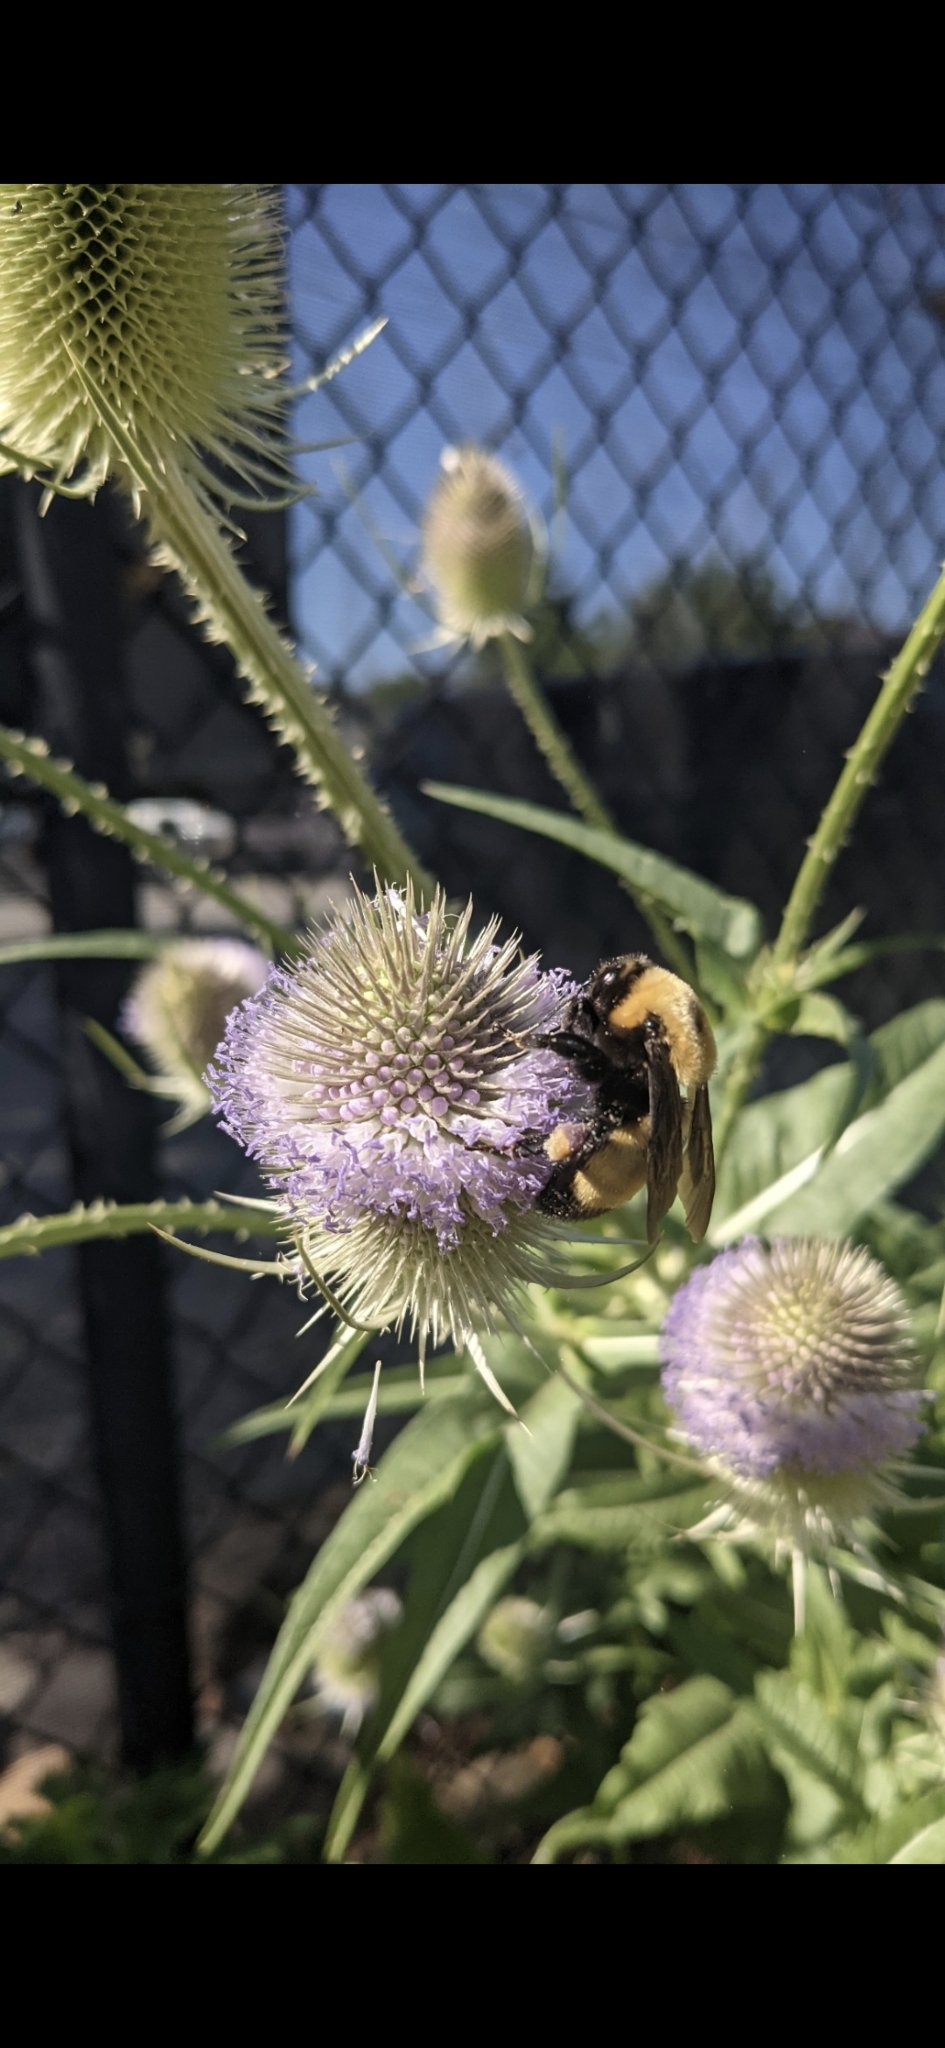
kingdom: Animalia
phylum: Arthropoda
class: Insecta
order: Hymenoptera
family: Apidae
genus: Bombus
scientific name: Bombus nevadensis
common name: Nevada bumble bee
